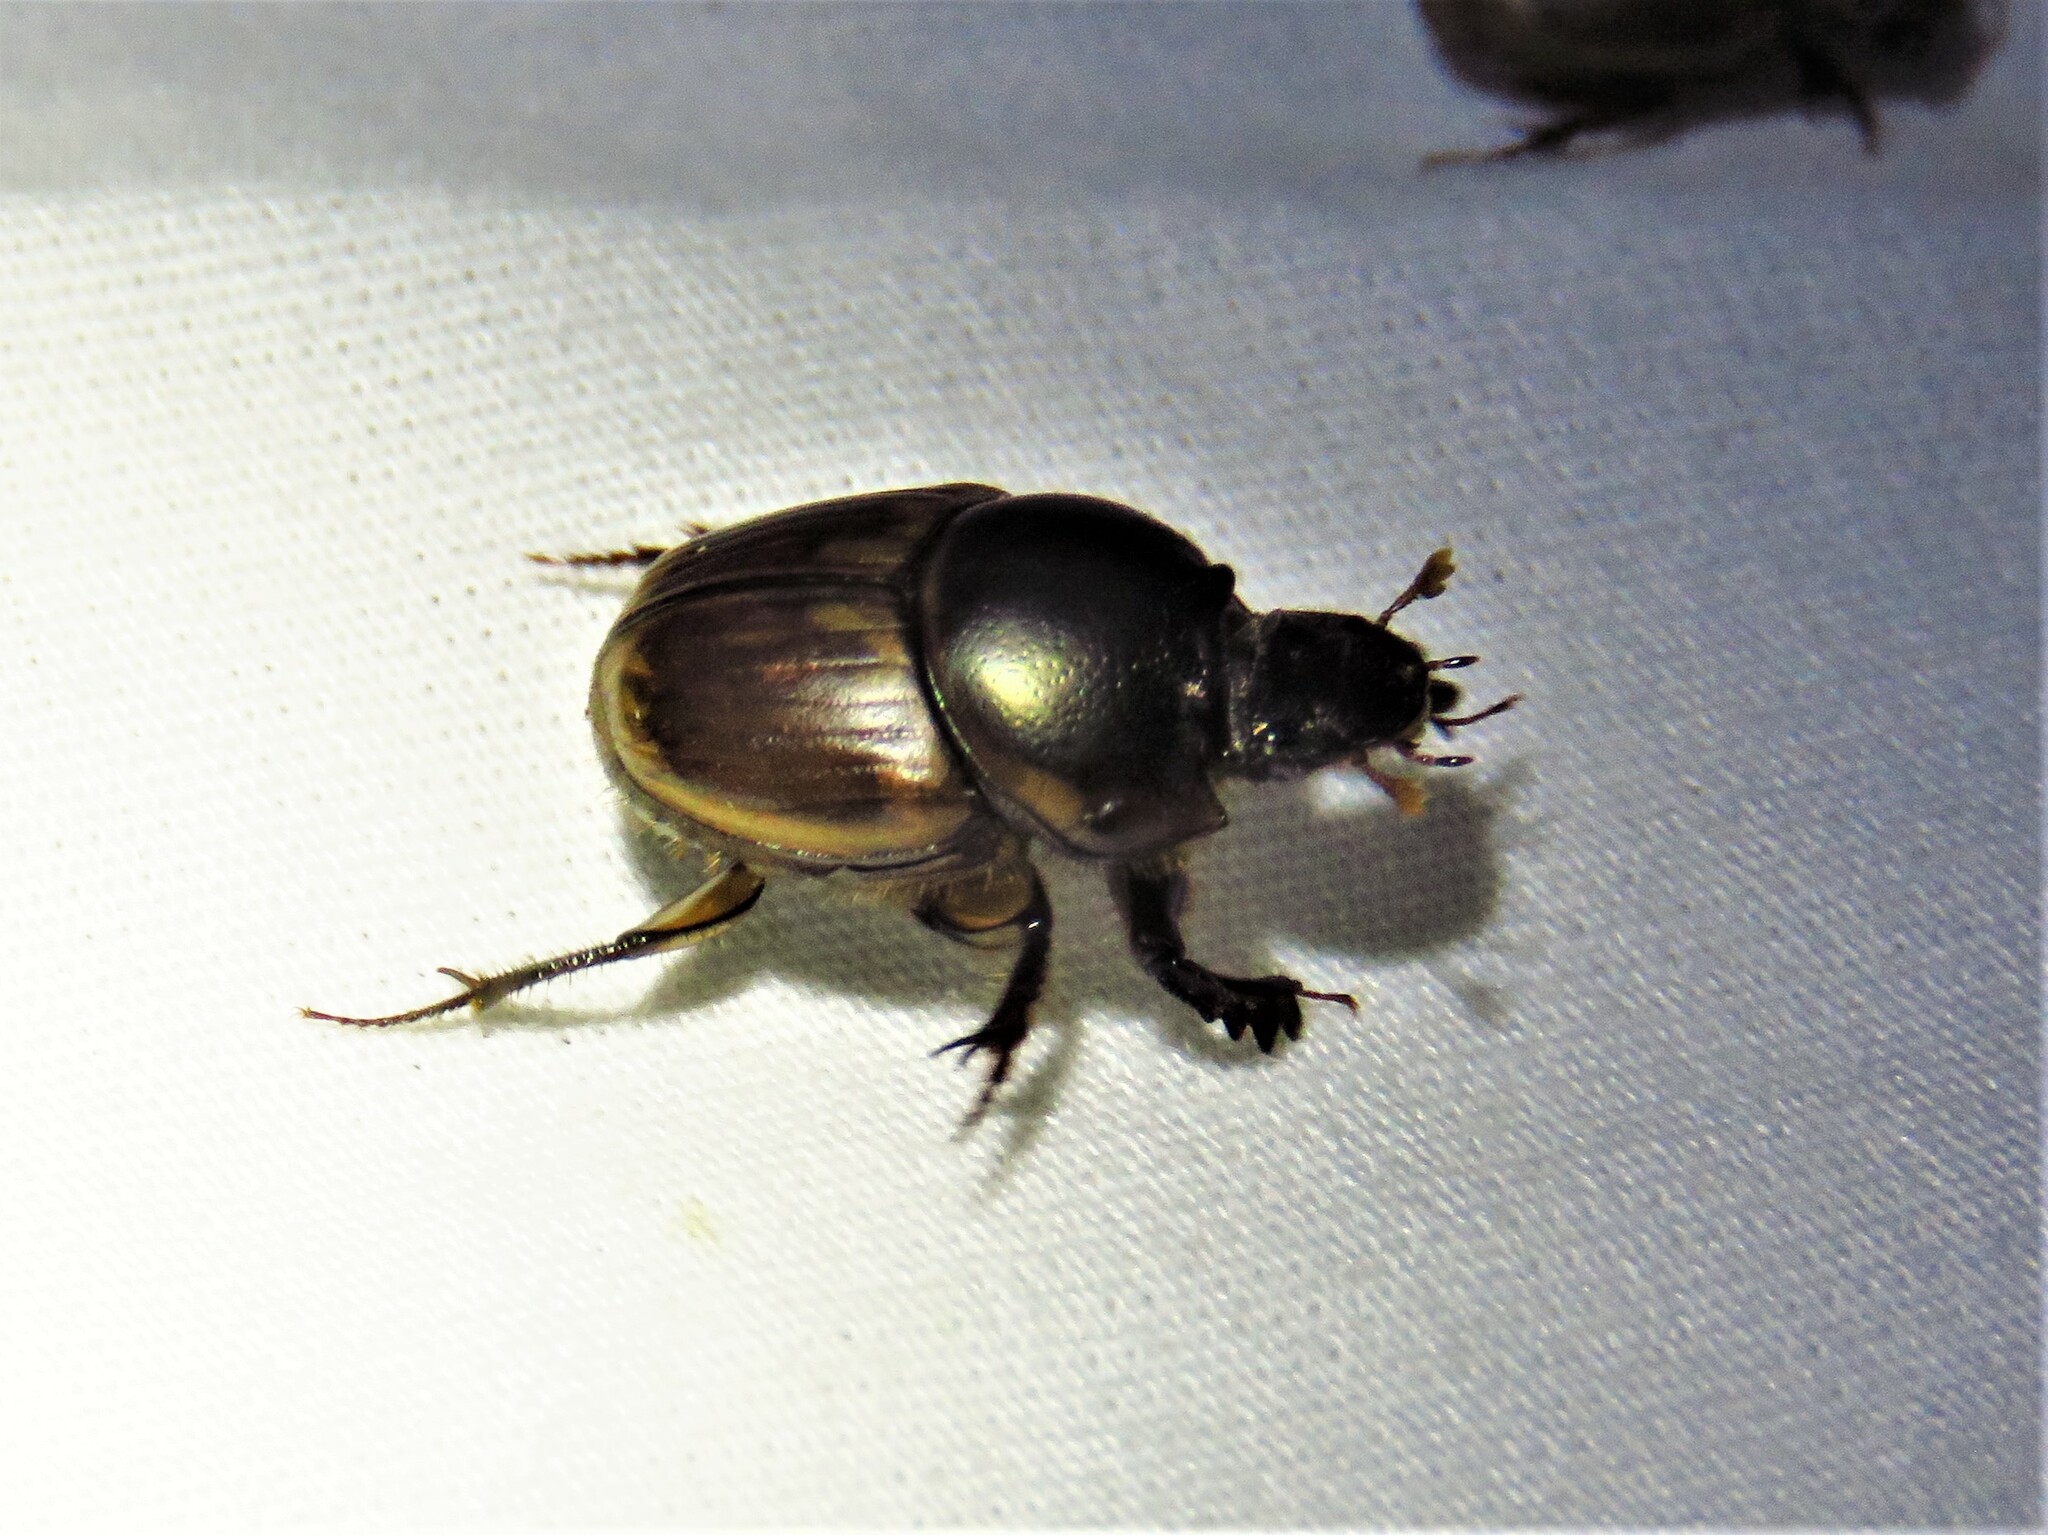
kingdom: Animalia
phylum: Arthropoda
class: Insecta
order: Coleoptera
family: Scarabaeidae
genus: Digitonthophagus
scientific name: Digitonthophagus gazella
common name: Brown dung beetle
